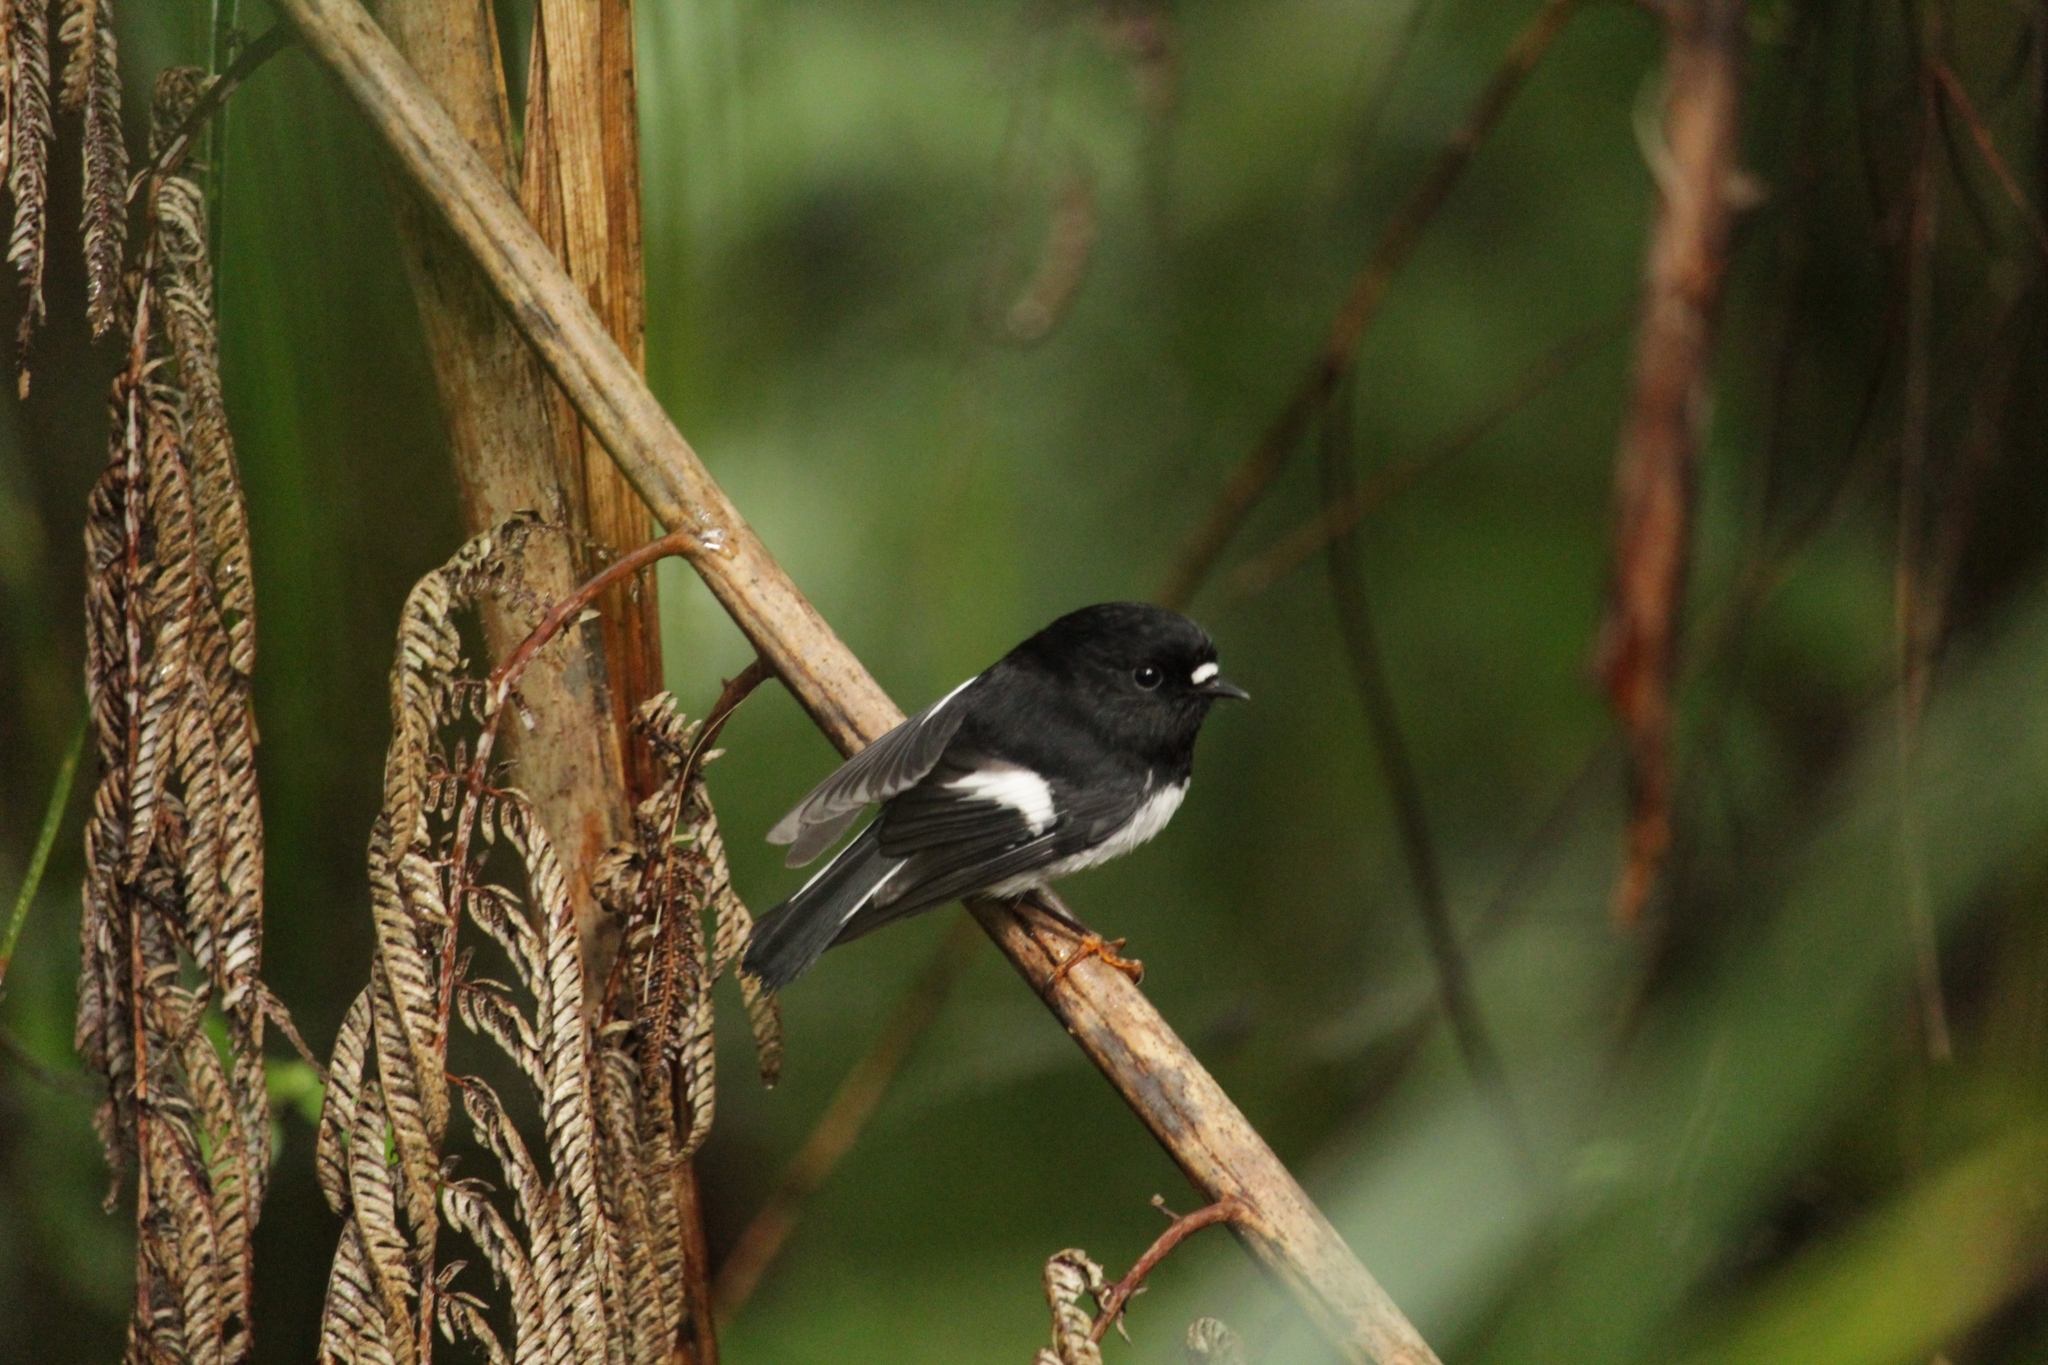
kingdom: Animalia
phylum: Chordata
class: Aves
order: Passeriformes
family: Petroicidae
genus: Petroica
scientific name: Petroica macrocephala
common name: Tomtit
